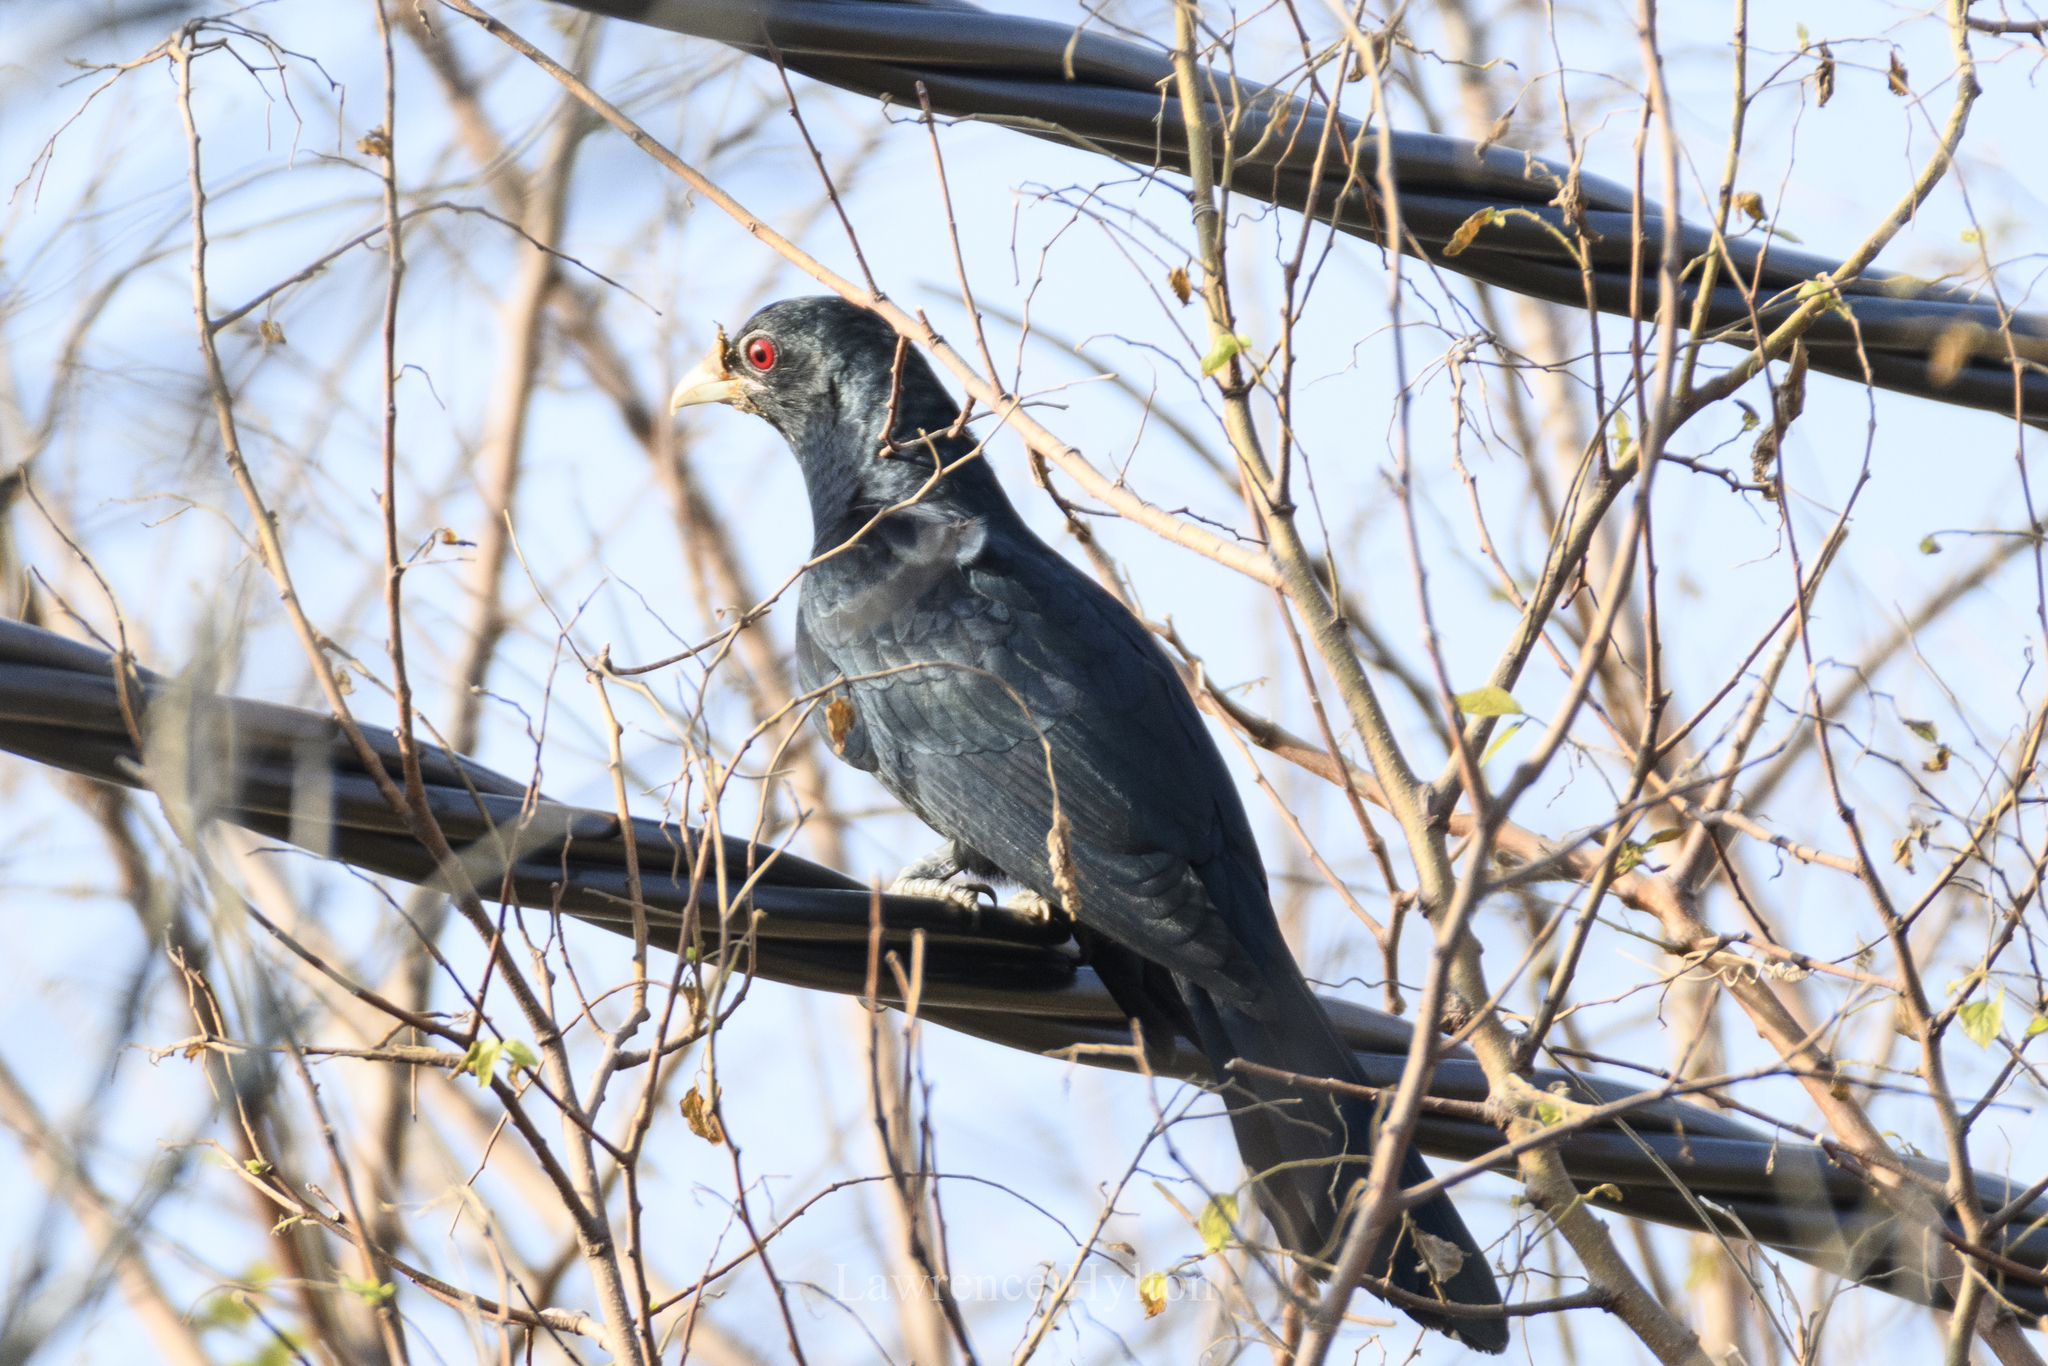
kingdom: Animalia
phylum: Chordata
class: Aves
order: Cuculiformes
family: Cuculidae
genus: Eudynamys
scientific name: Eudynamys scolopaceus
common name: Asian koel
